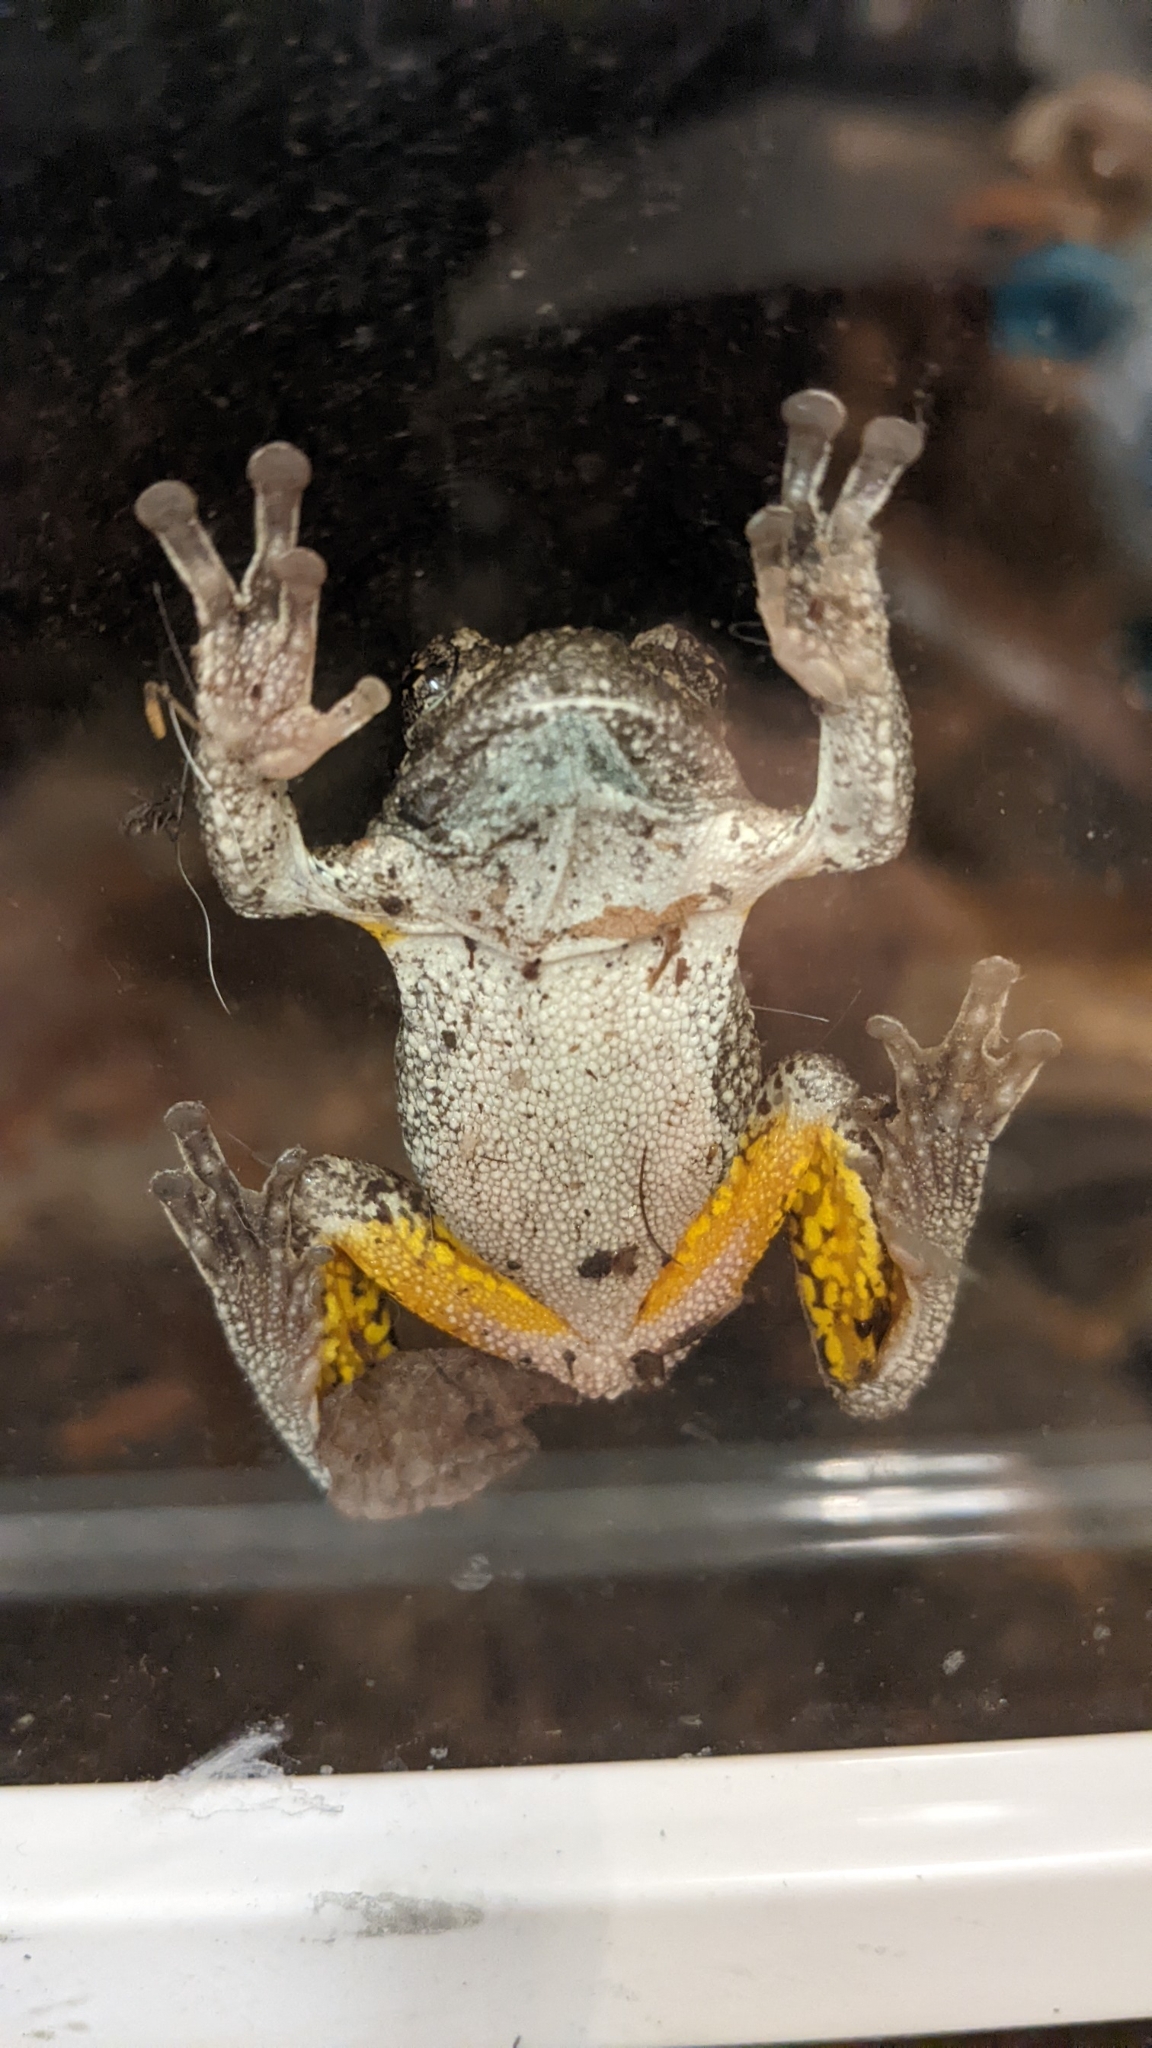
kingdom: Animalia
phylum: Chordata
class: Amphibia
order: Anura
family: Hylidae
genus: Hyla
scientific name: Hyla
